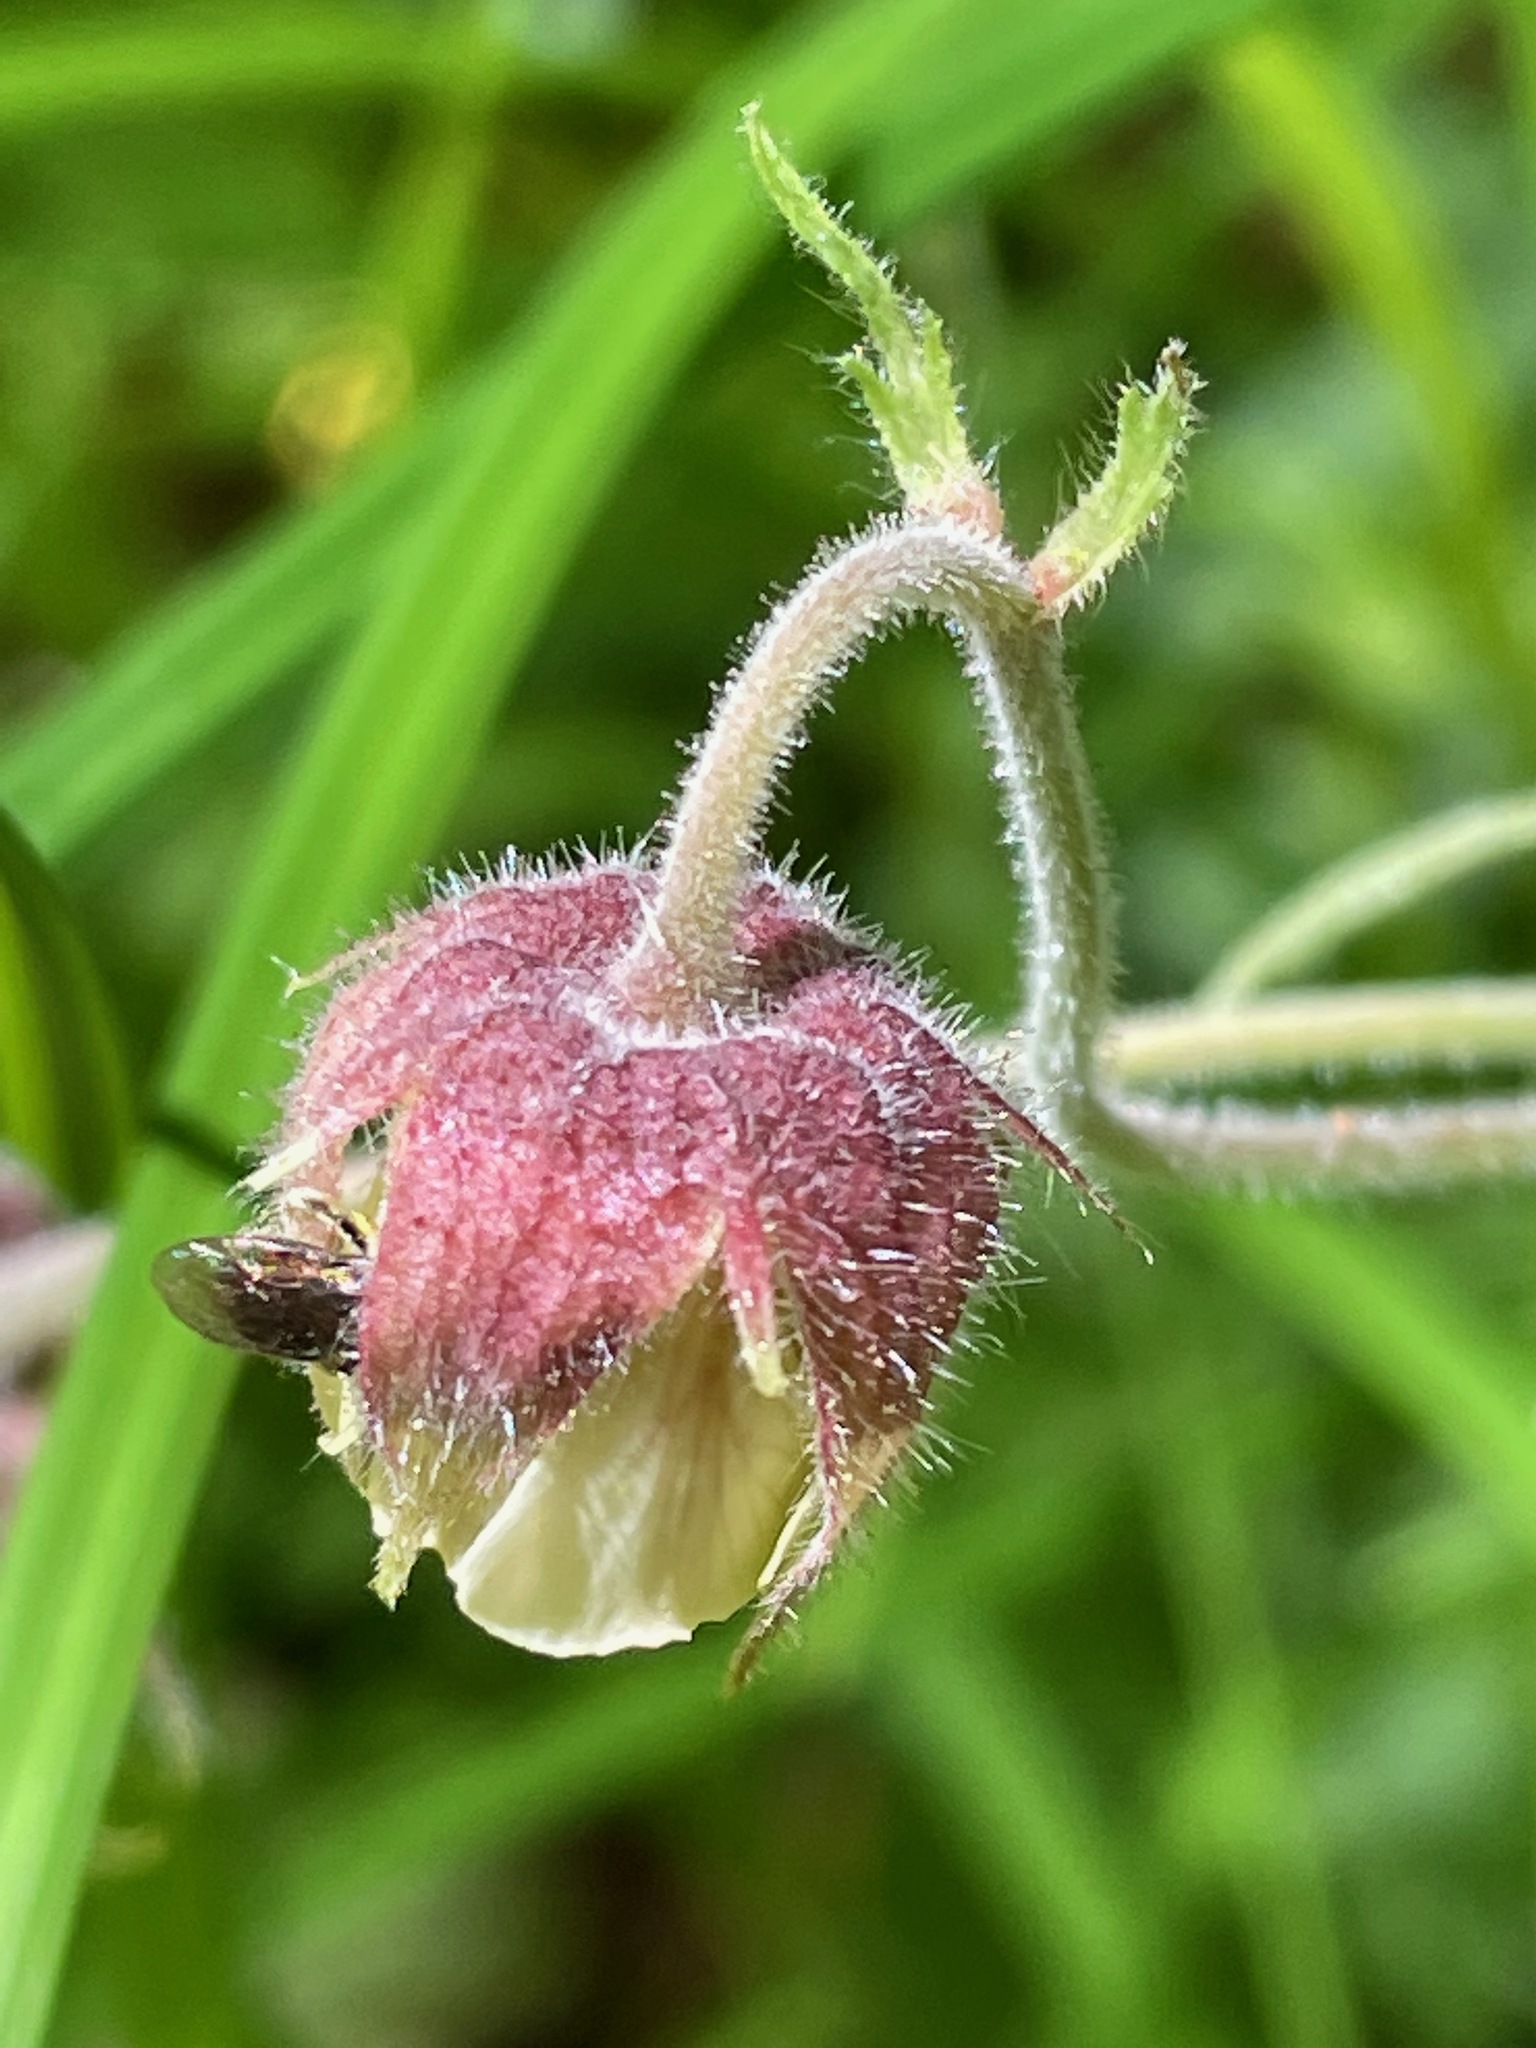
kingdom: Plantae
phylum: Tracheophyta
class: Magnoliopsida
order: Rosales
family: Rosaceae
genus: Geum
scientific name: Geum rivale
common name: Water avens
